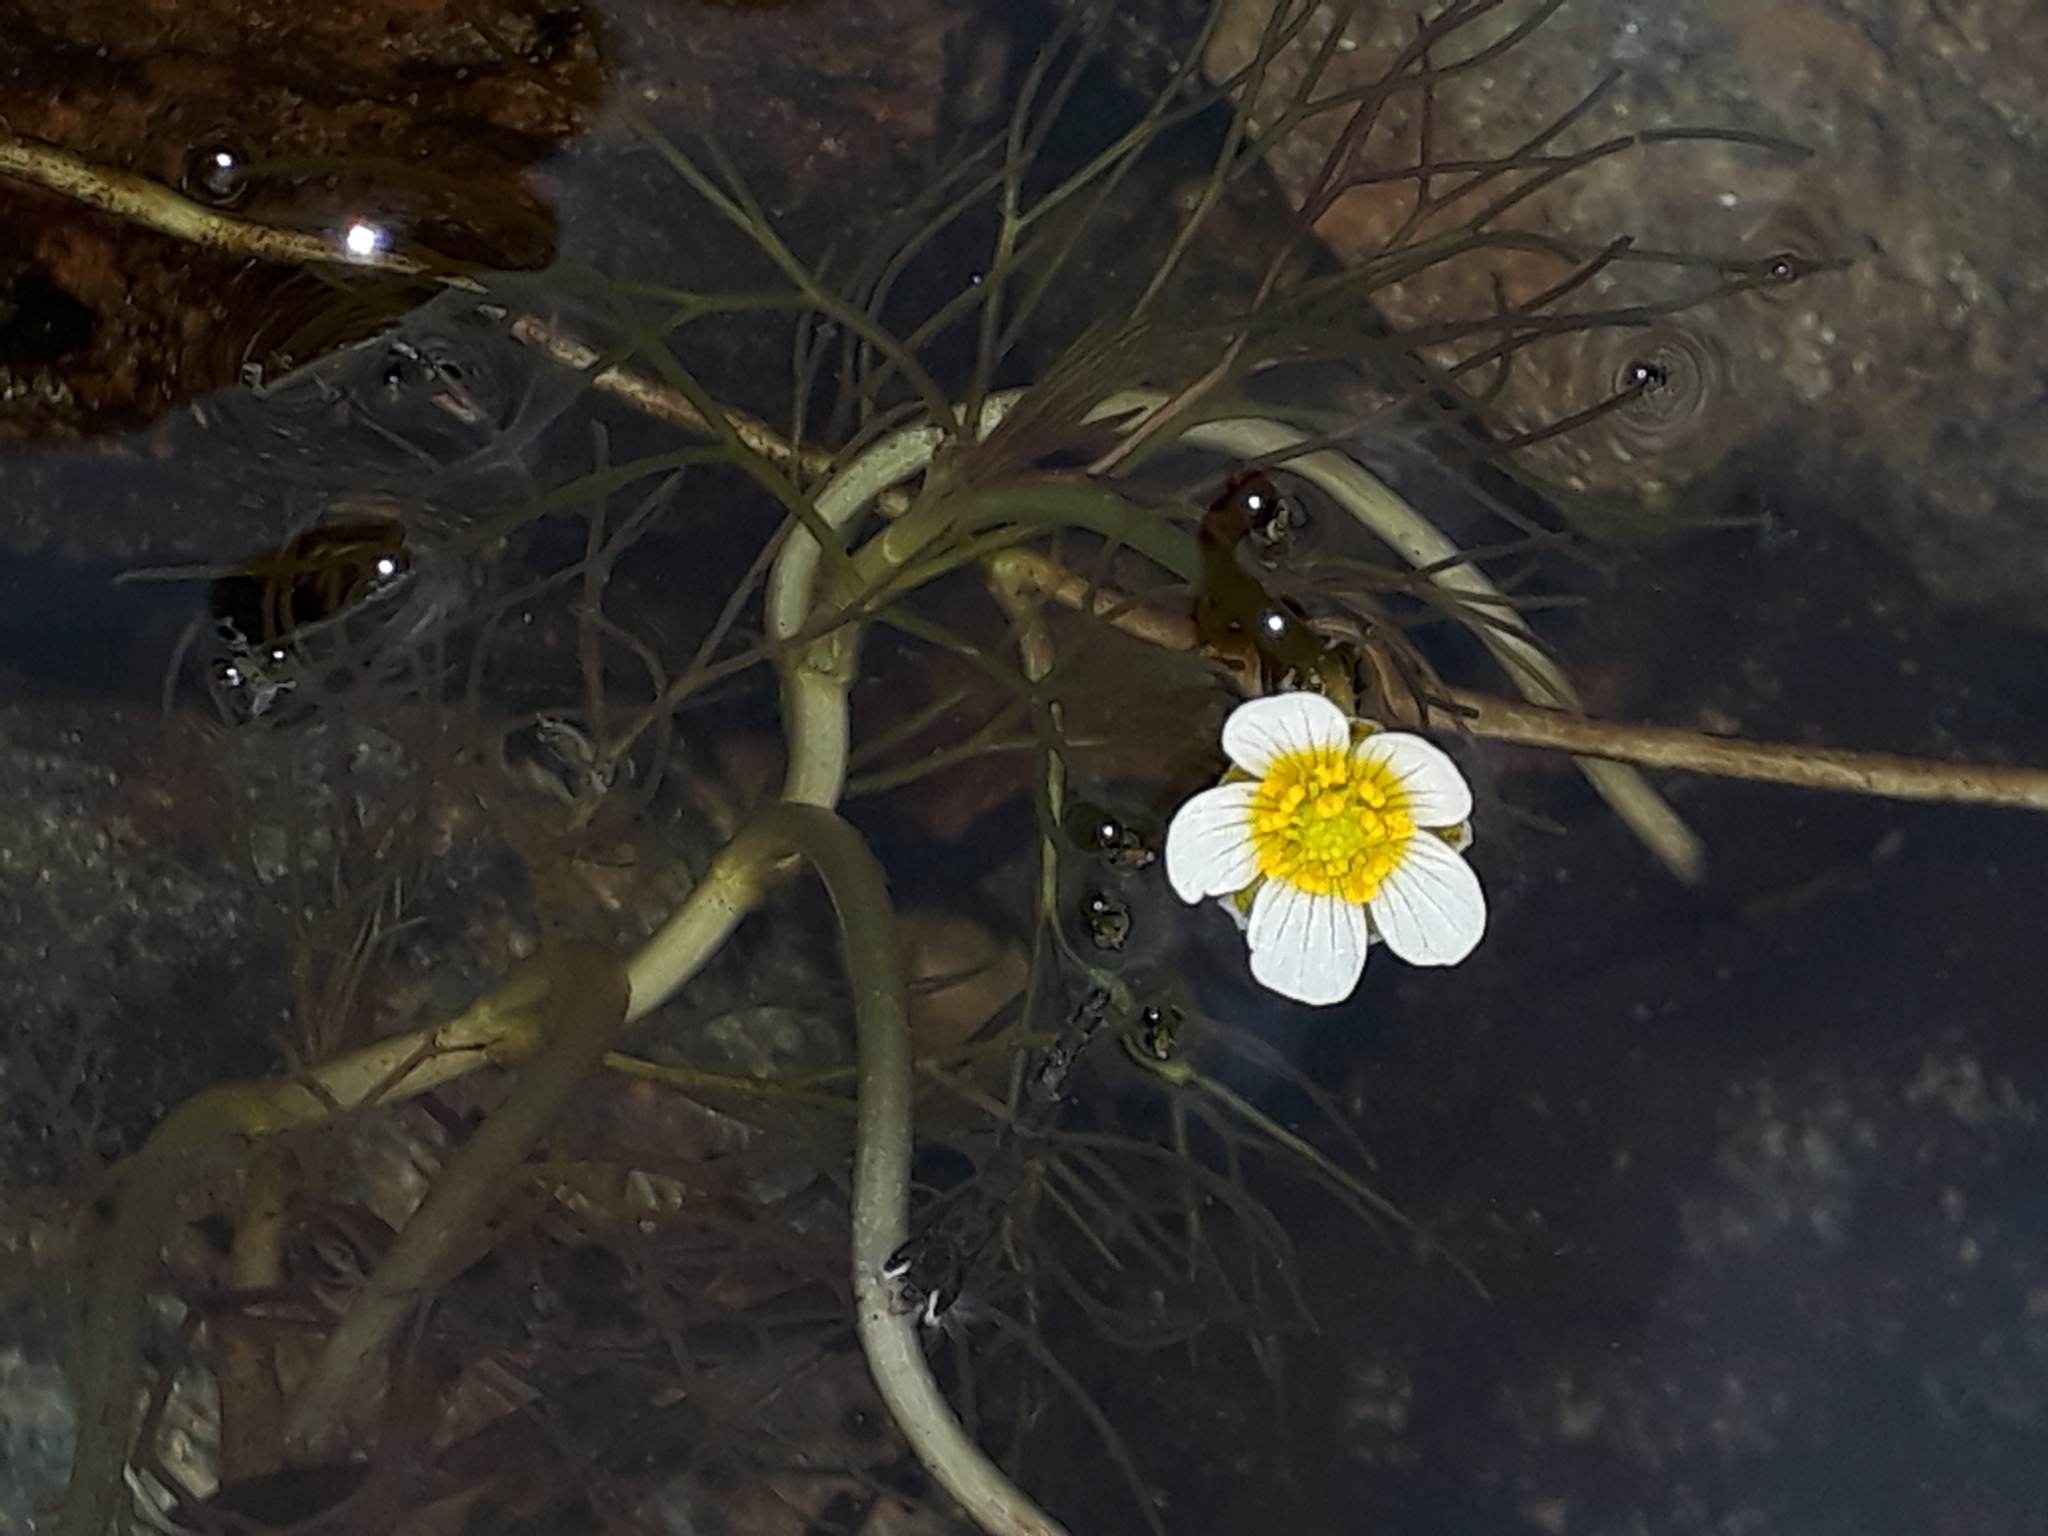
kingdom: Plantae
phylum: Tracheophyta
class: Magnoliopsida
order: Ranunculales
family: Ranunculaceae
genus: Ranunculus
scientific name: Ranunculus trichophyllus
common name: Thread-leaved water-crowfoot
